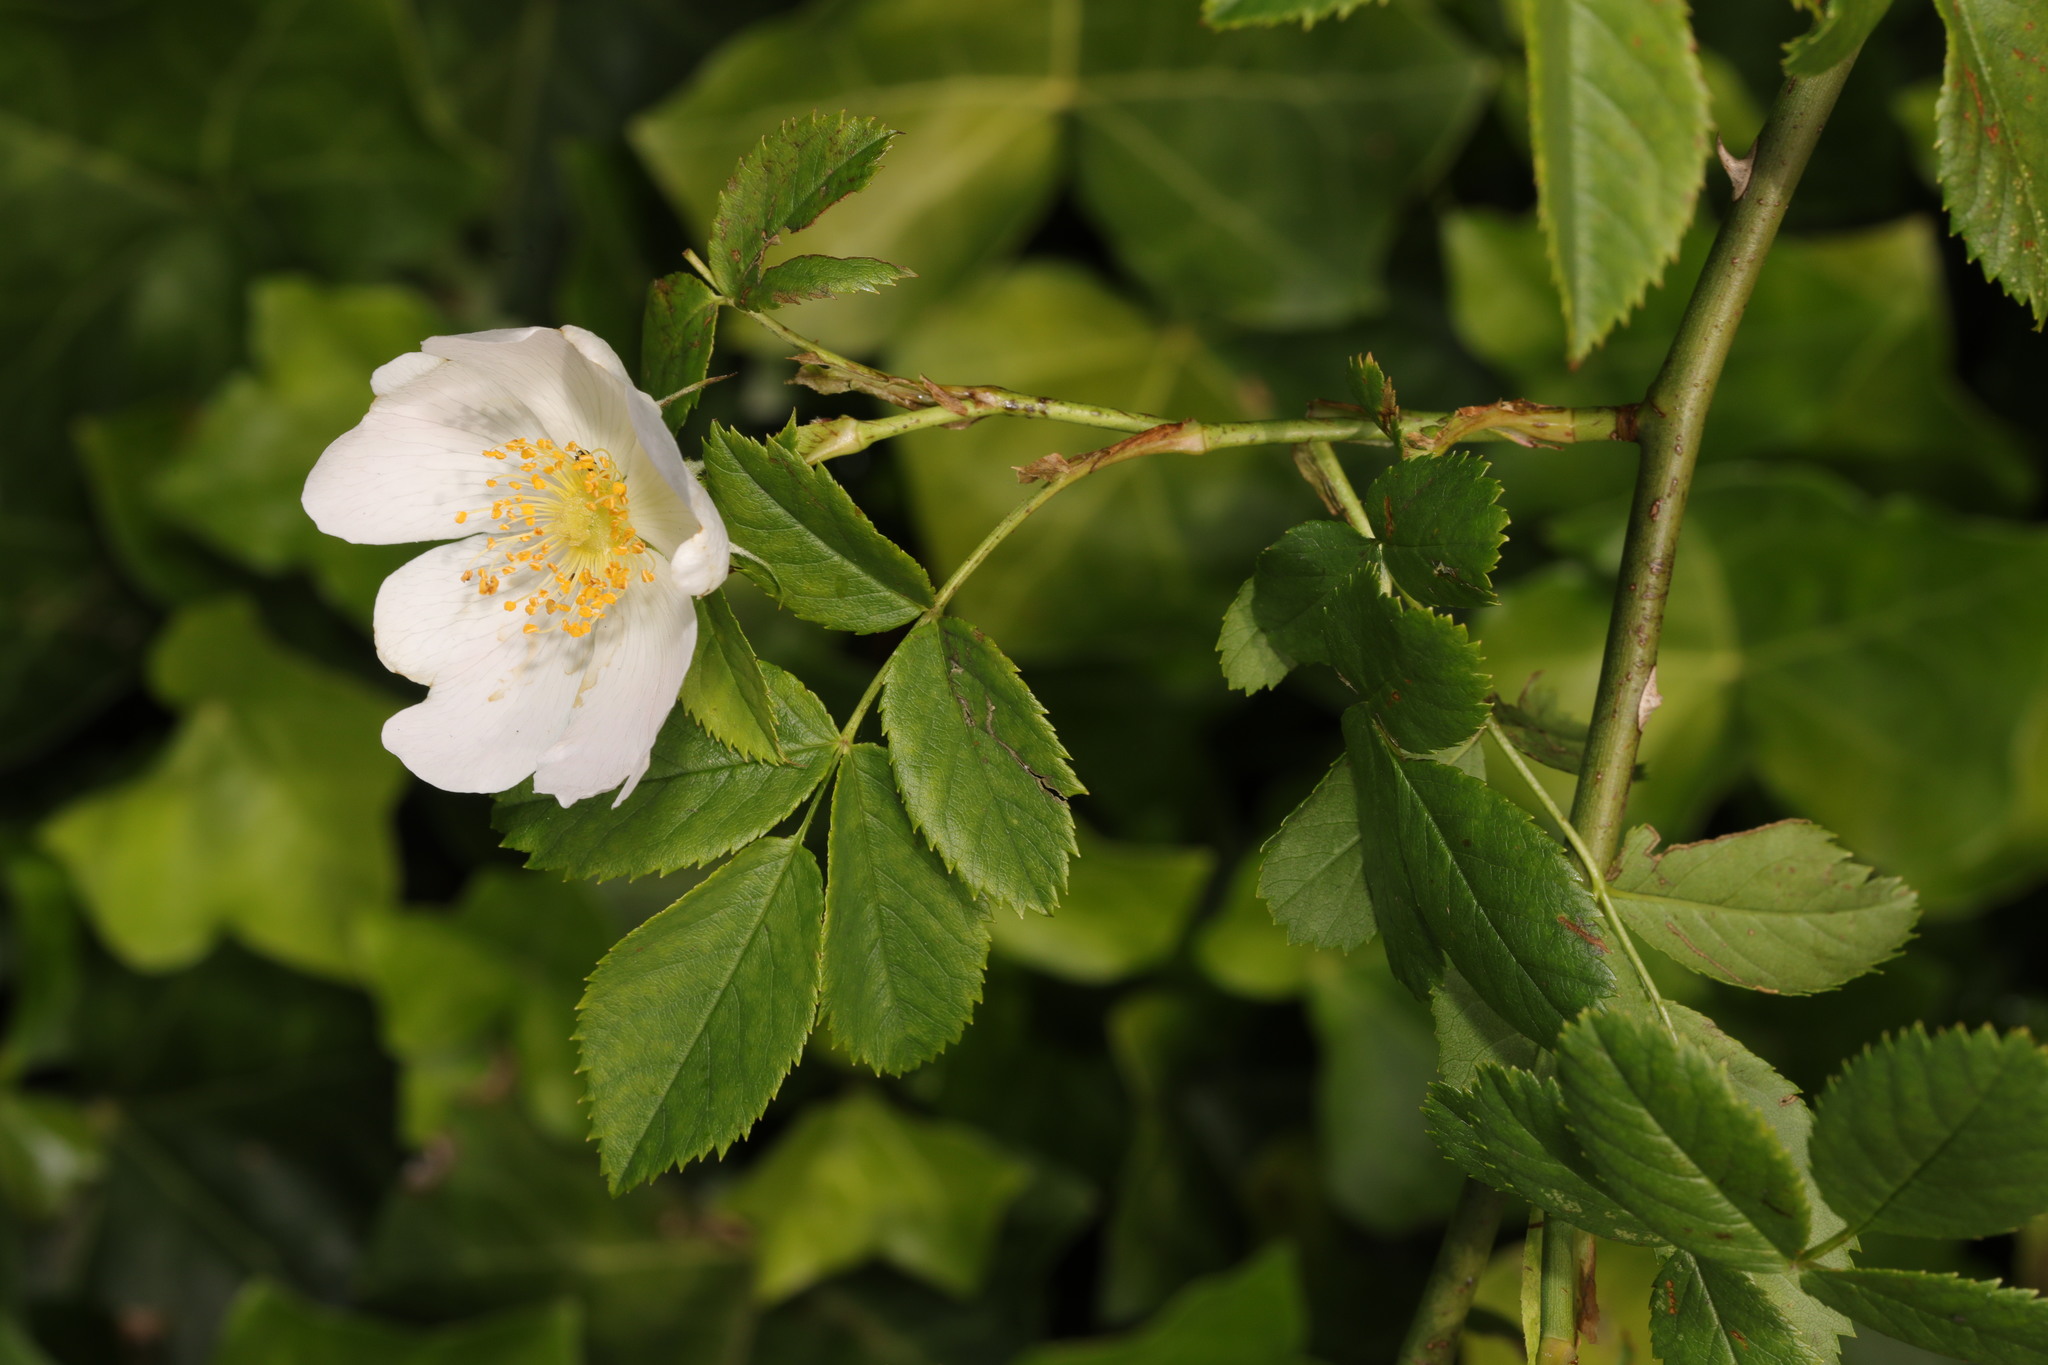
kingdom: Plantae
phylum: Tracheophyta
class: Magnoliopsida
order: Rosales
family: Rosaceae
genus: Rosa
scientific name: Rosa canina
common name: Dog rose
